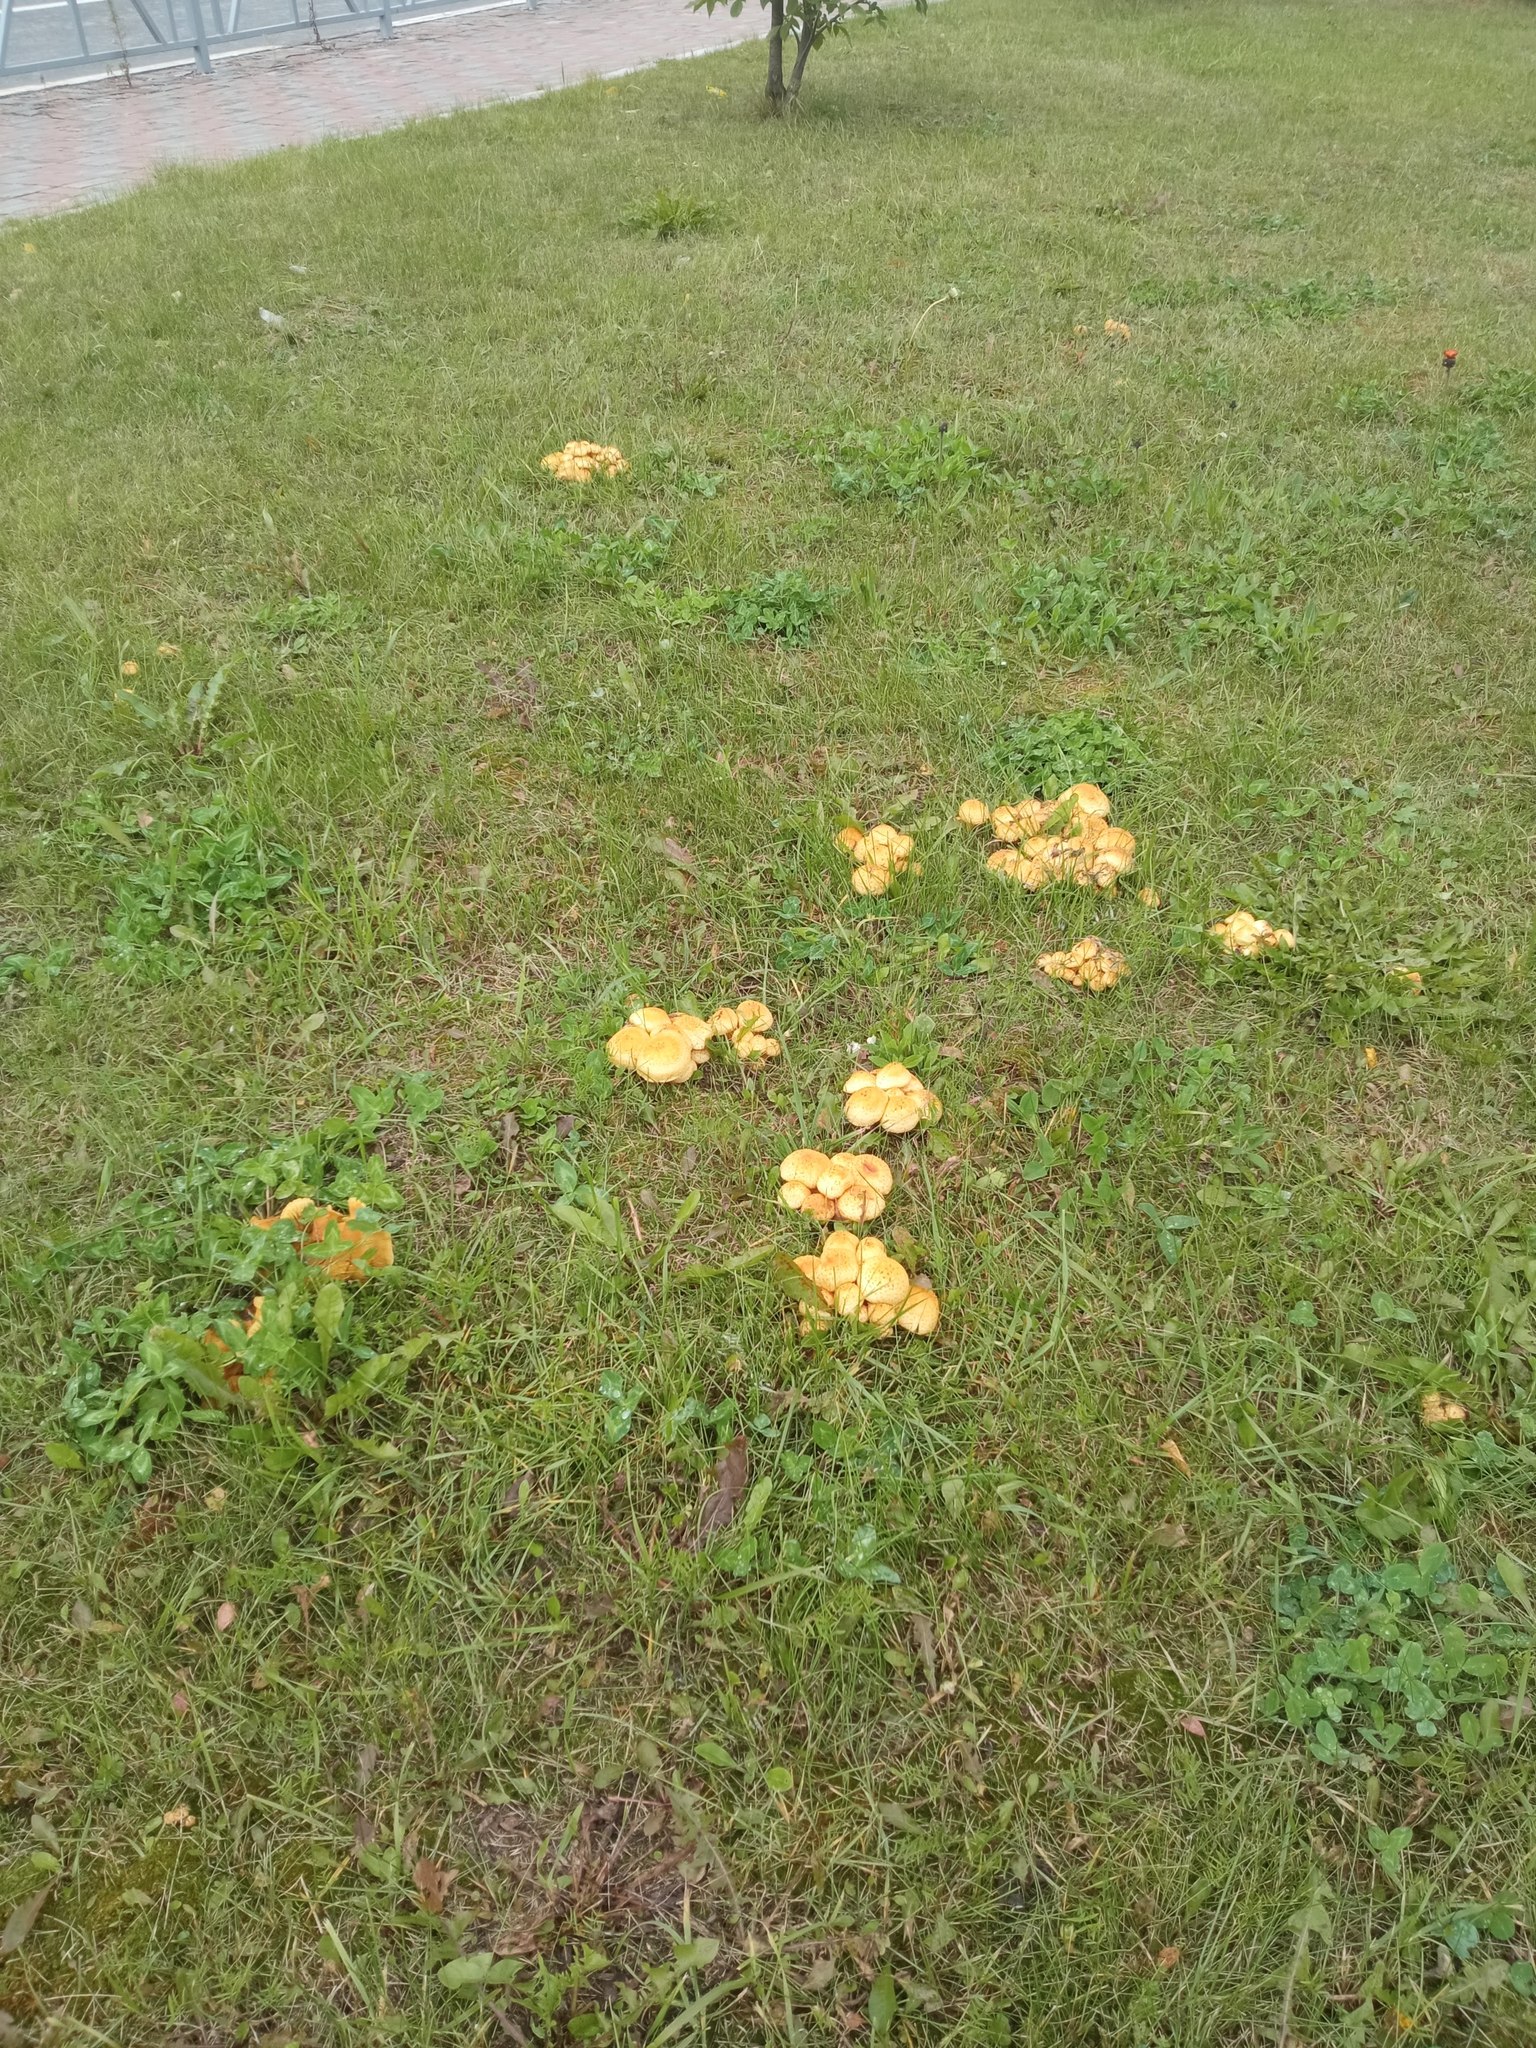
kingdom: Fungi
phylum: Basidiomycota
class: Agaricomycetes
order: Agaricales
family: Strophariaceae
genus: Pholiota
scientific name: Pholiota kodiakensis
